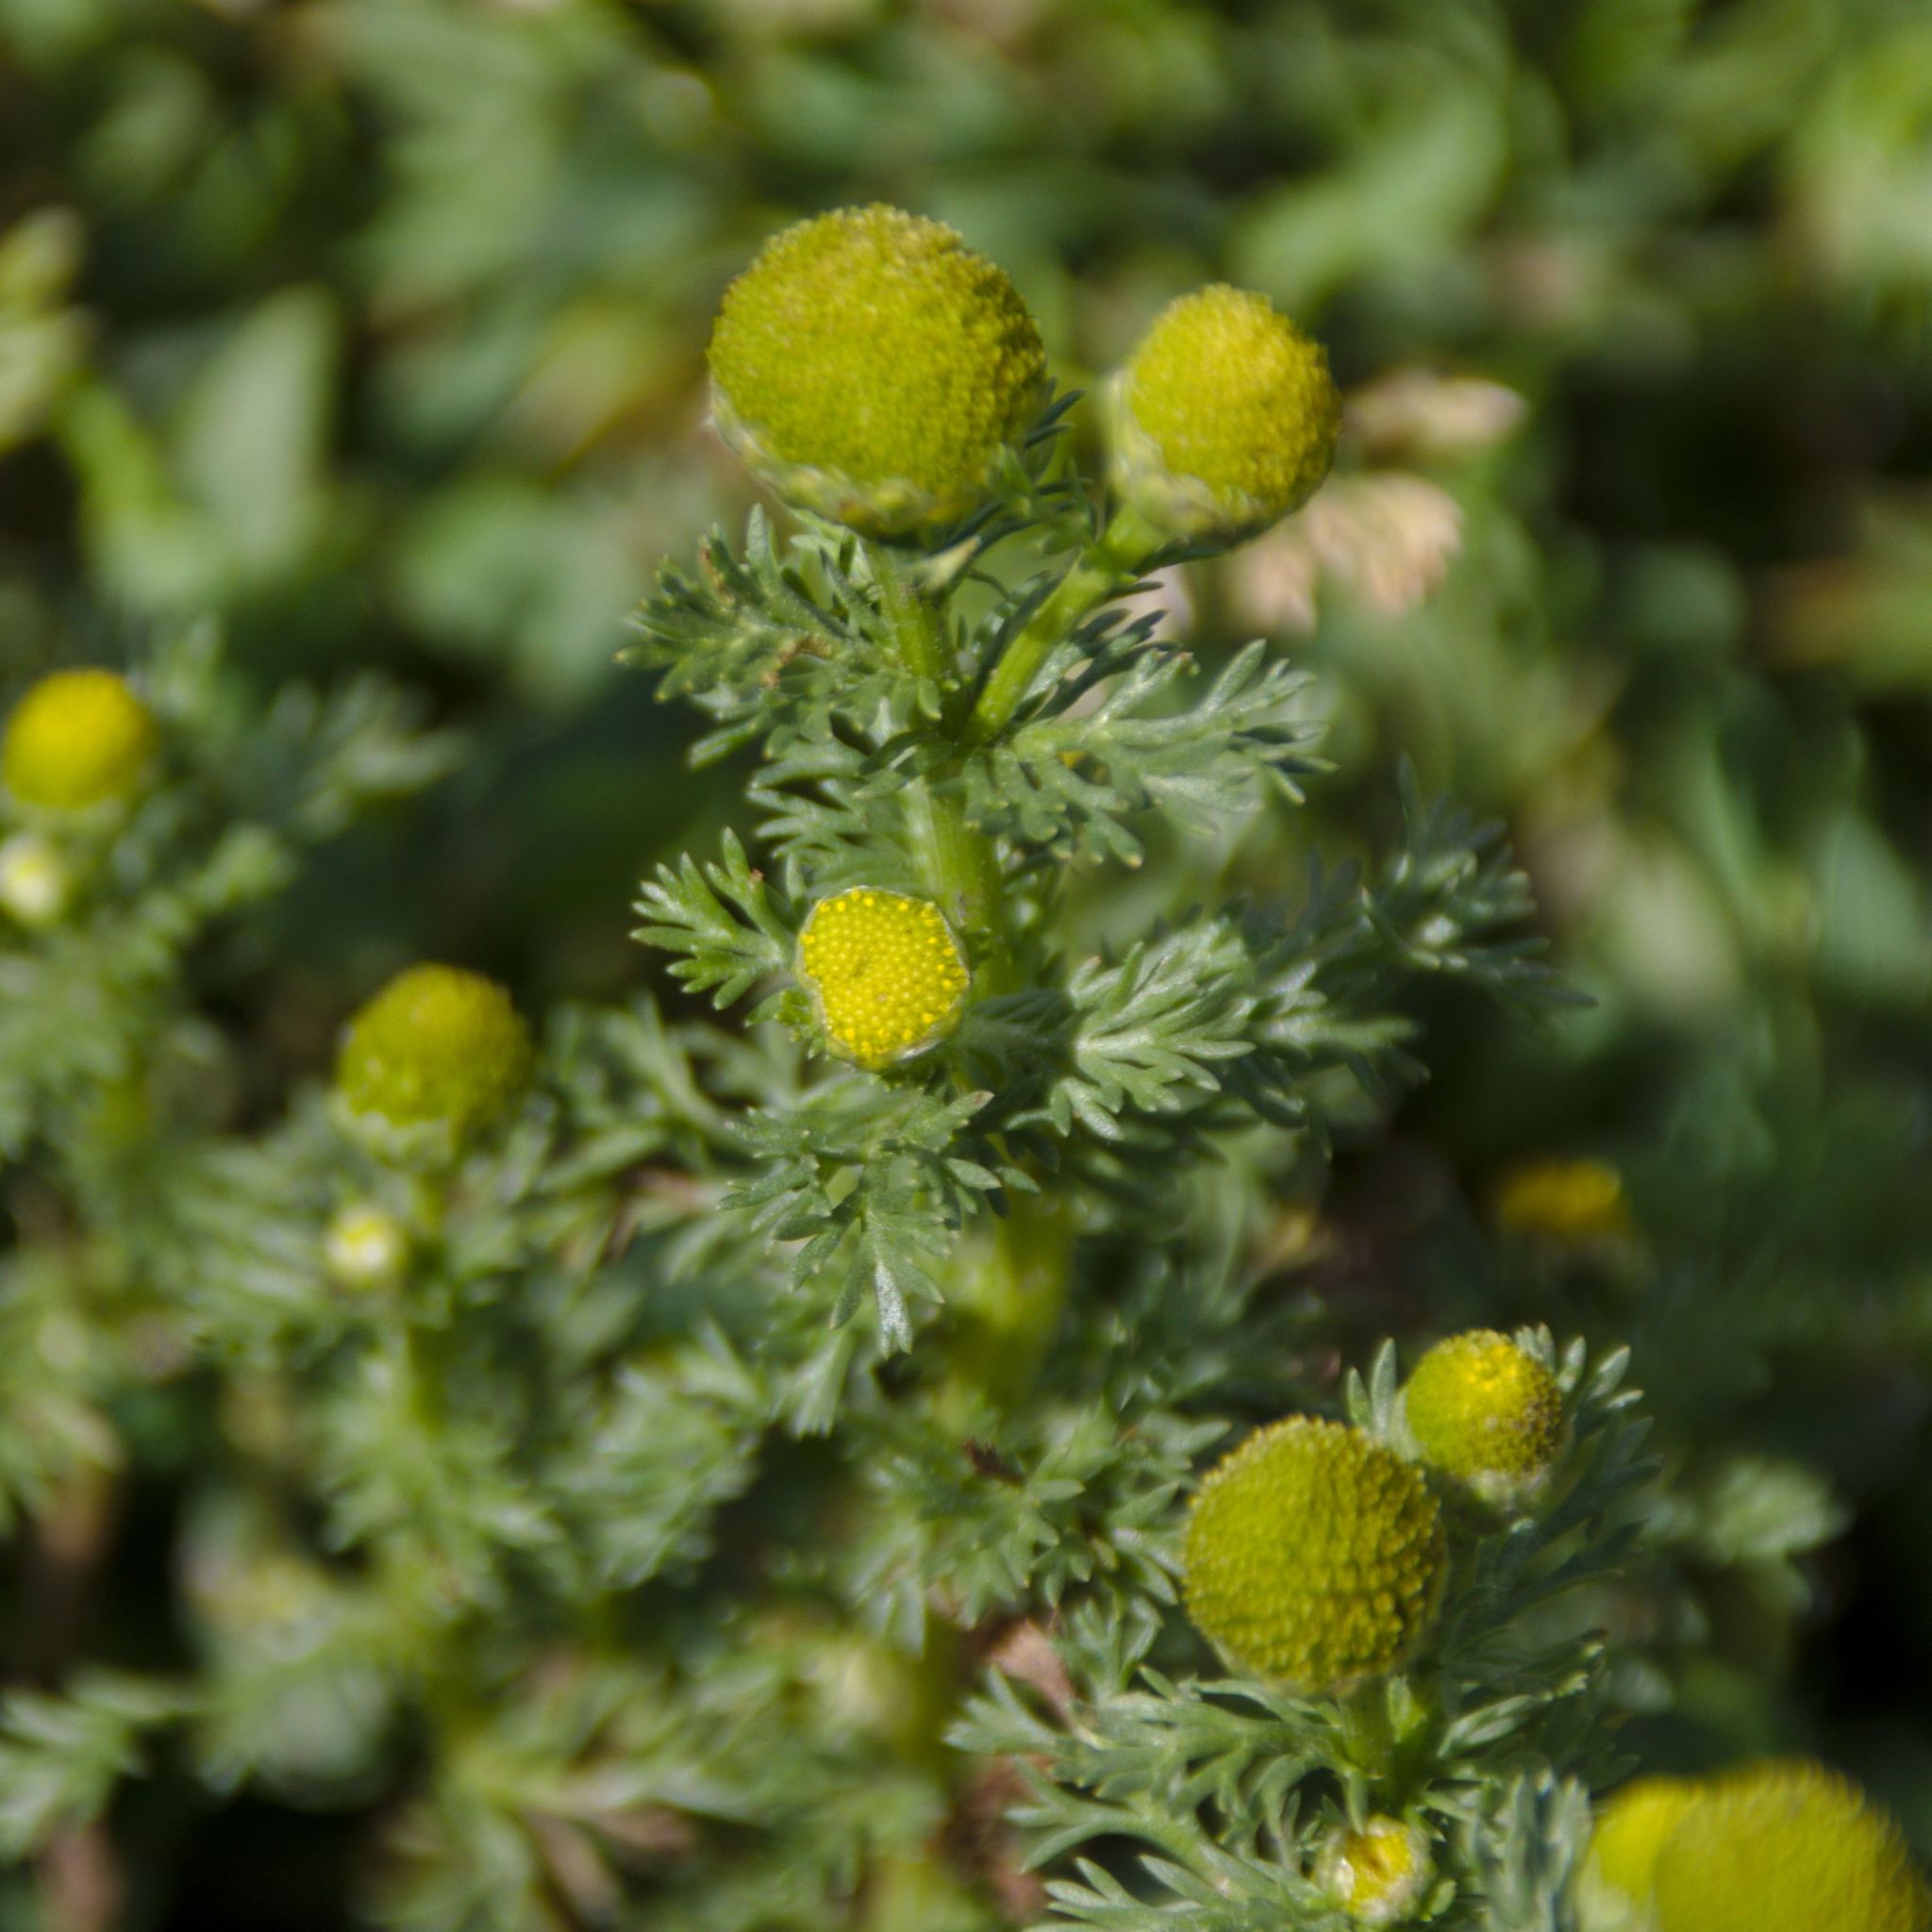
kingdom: Plantae
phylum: Tracheophyta
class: Magnoliopsida
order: Asterales
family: Asteraceae
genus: Matricaria
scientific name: Matricaria discoidea
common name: Disc mayweed
